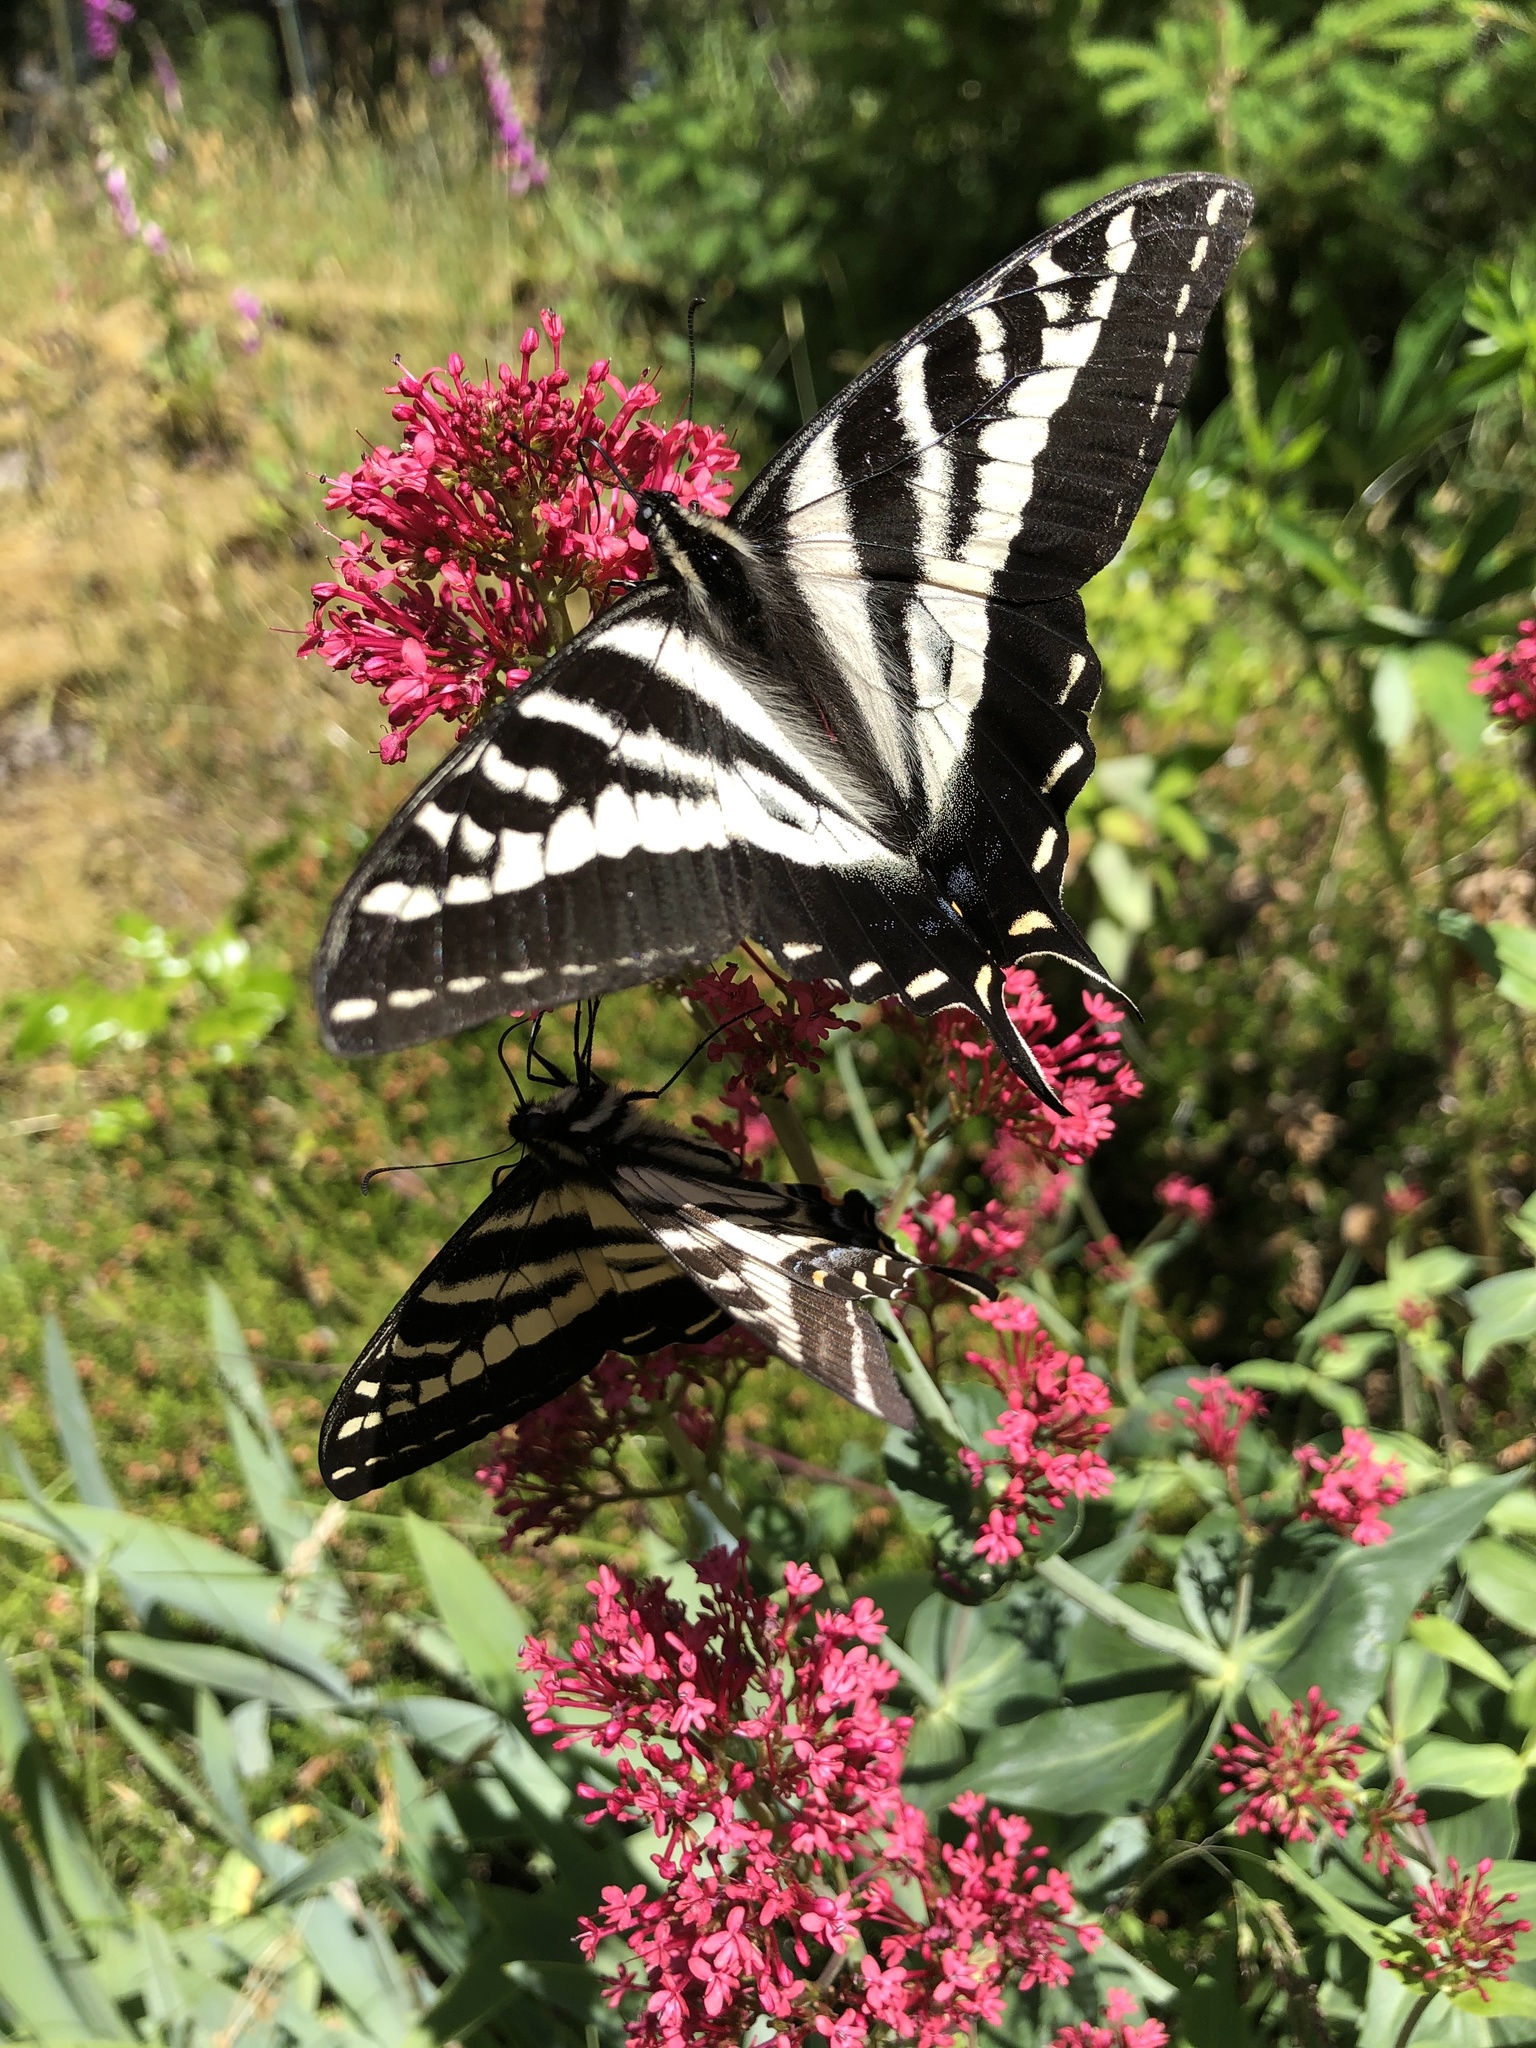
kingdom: Animalia
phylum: Arthropoda
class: Insecta
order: Lepidoptera
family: Papilionidae
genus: Papilio
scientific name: Papilio eurymedon
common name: Pale tiger swallowtail
